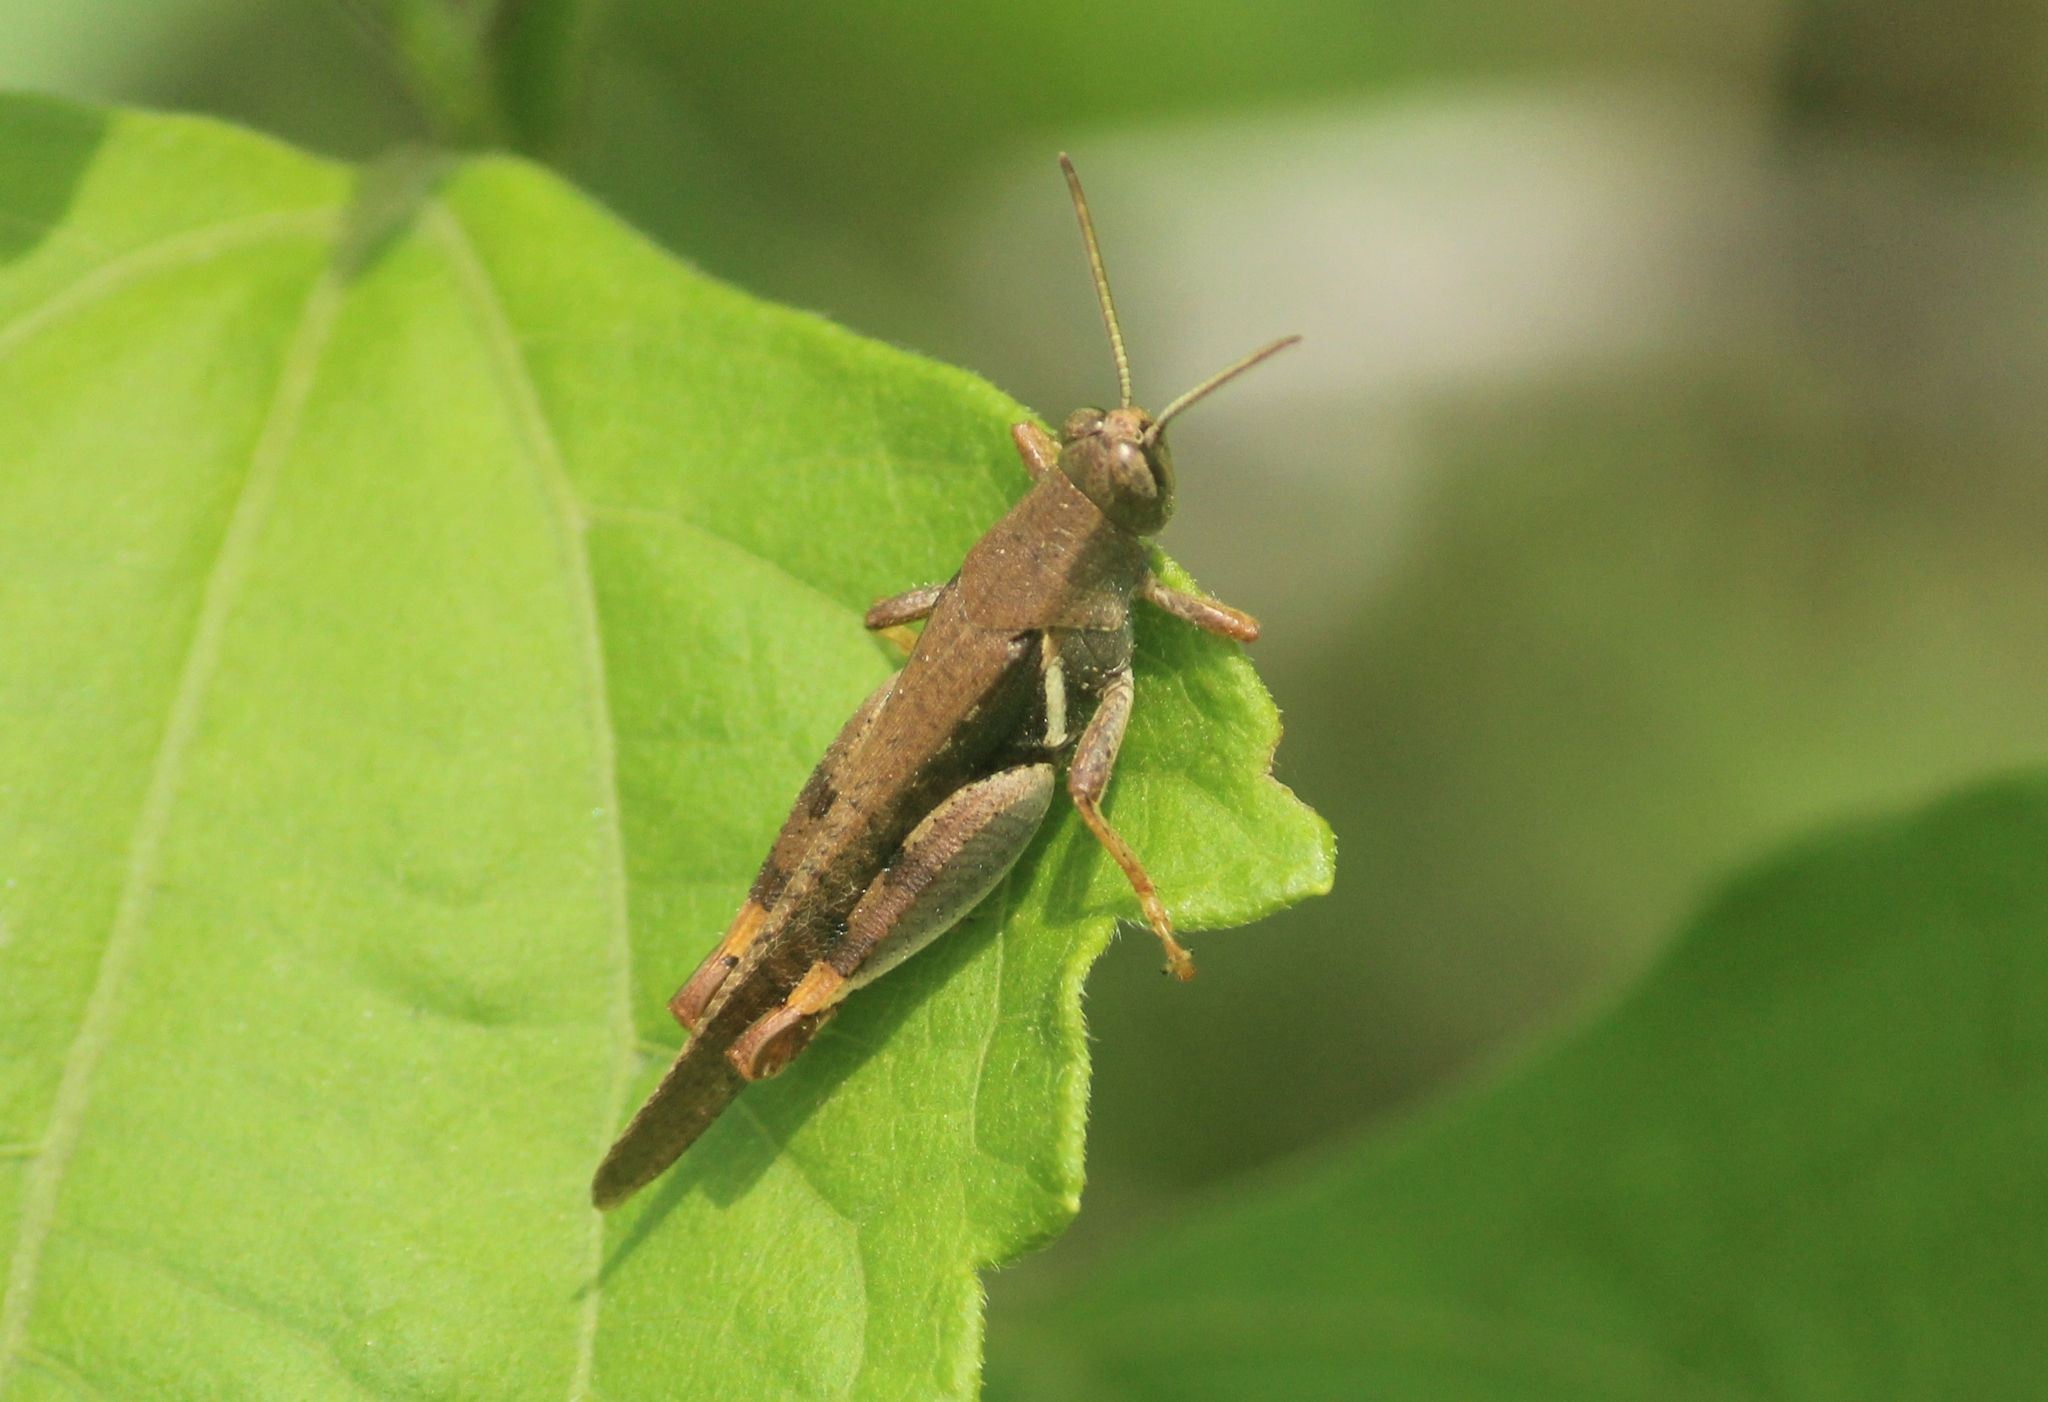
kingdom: Animalia
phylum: Arthropoda
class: Insecta
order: Orthoptera
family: Acrididae
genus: Diabolocatantops
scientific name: Diabolocatantops innotabilis
